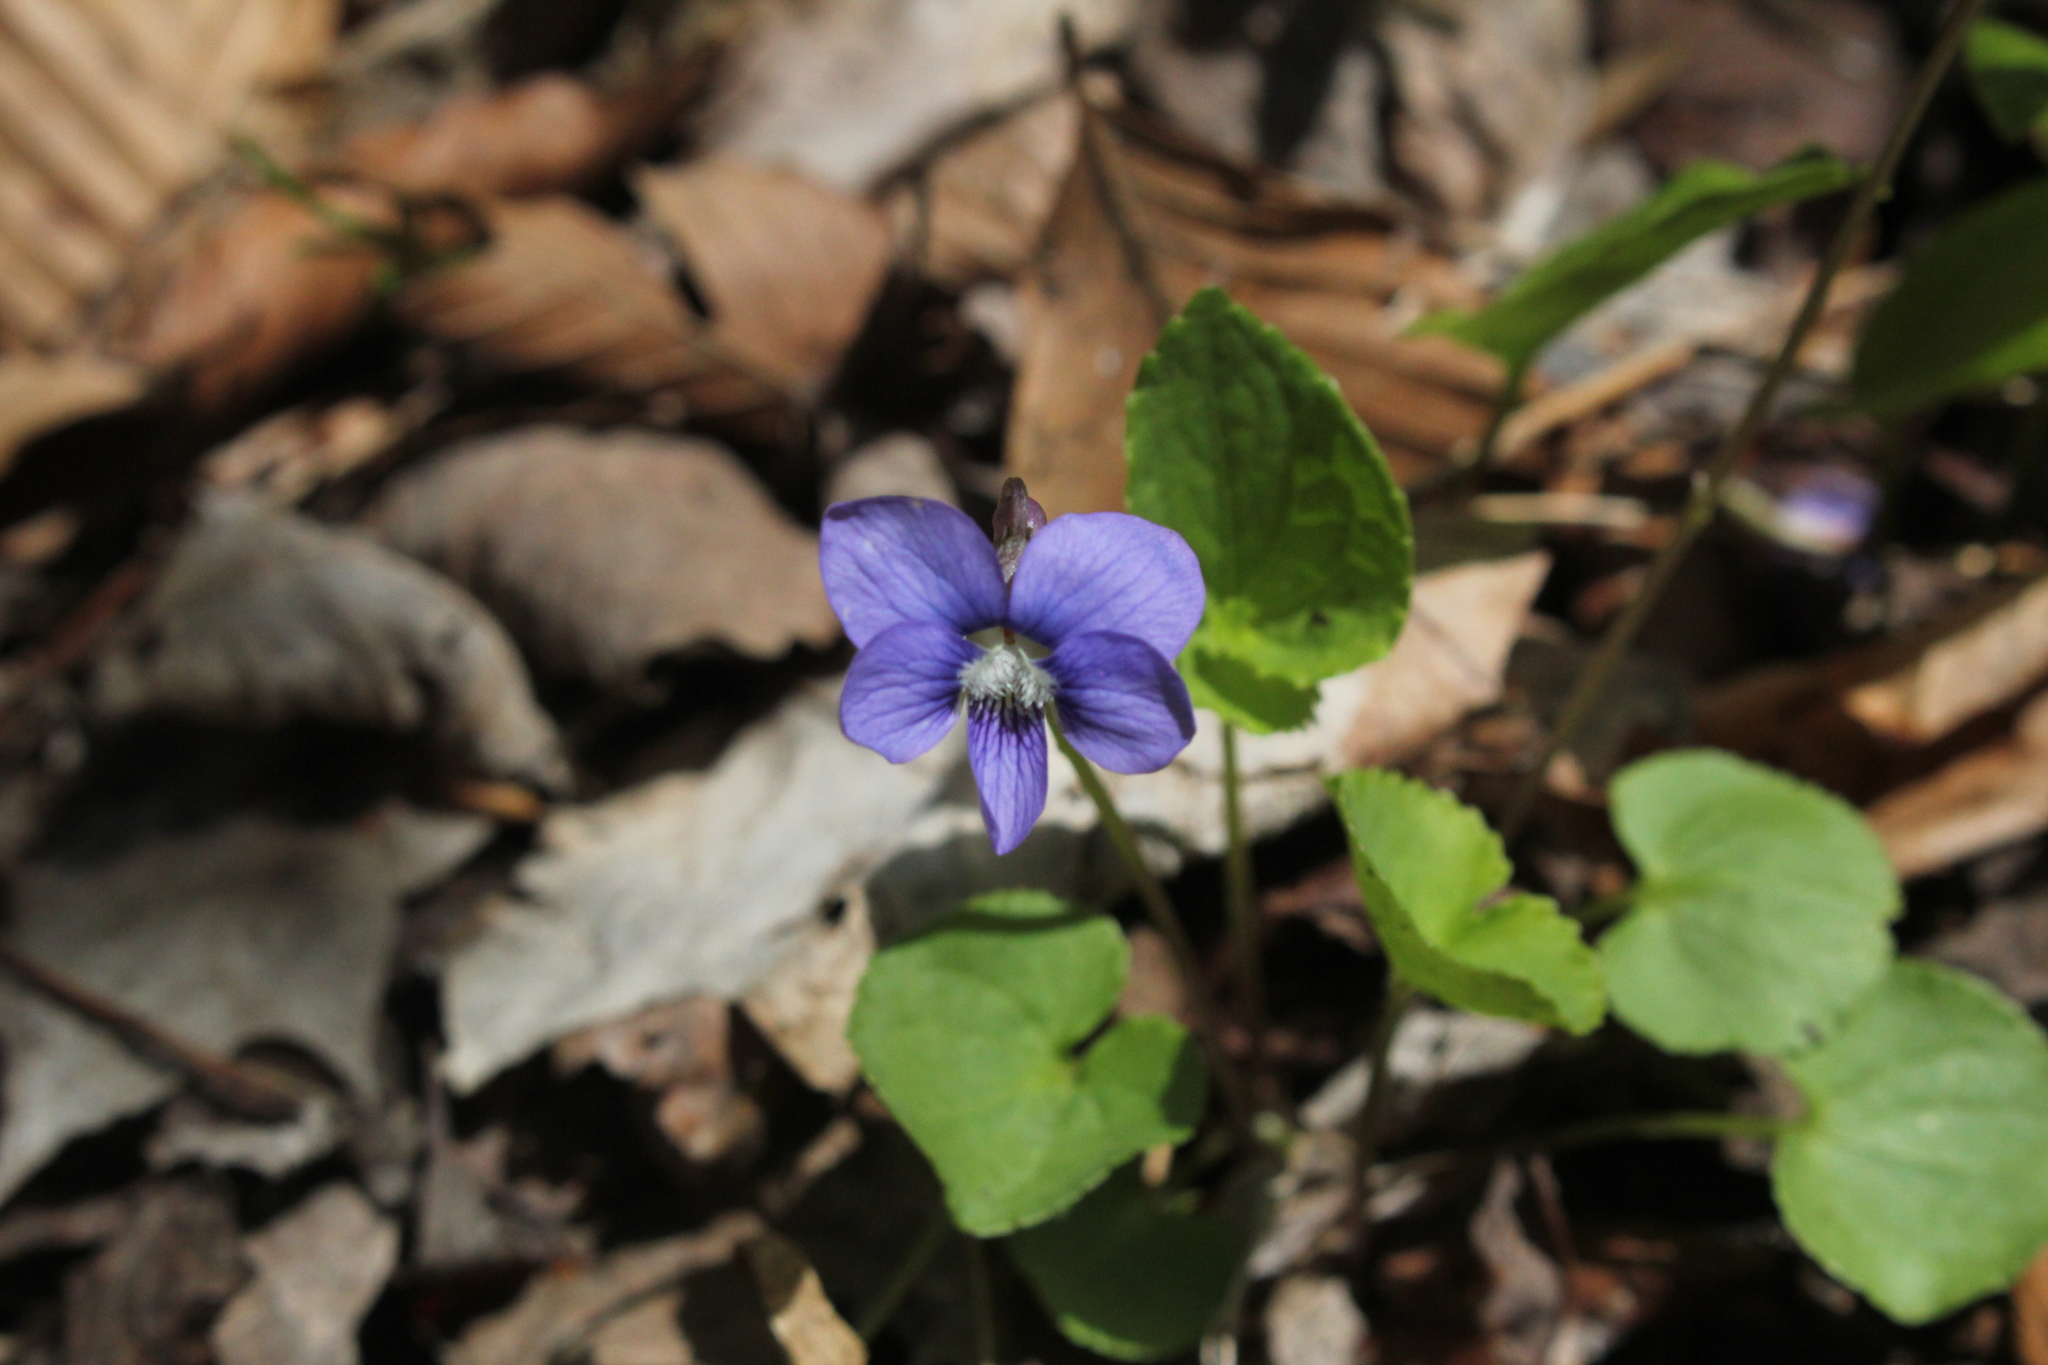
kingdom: Plantae
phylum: Tracheophyta
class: Magnoliopsida
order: Malpighiales
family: Violaceae
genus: Viola
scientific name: Viola sororia
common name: Dooryard violet
